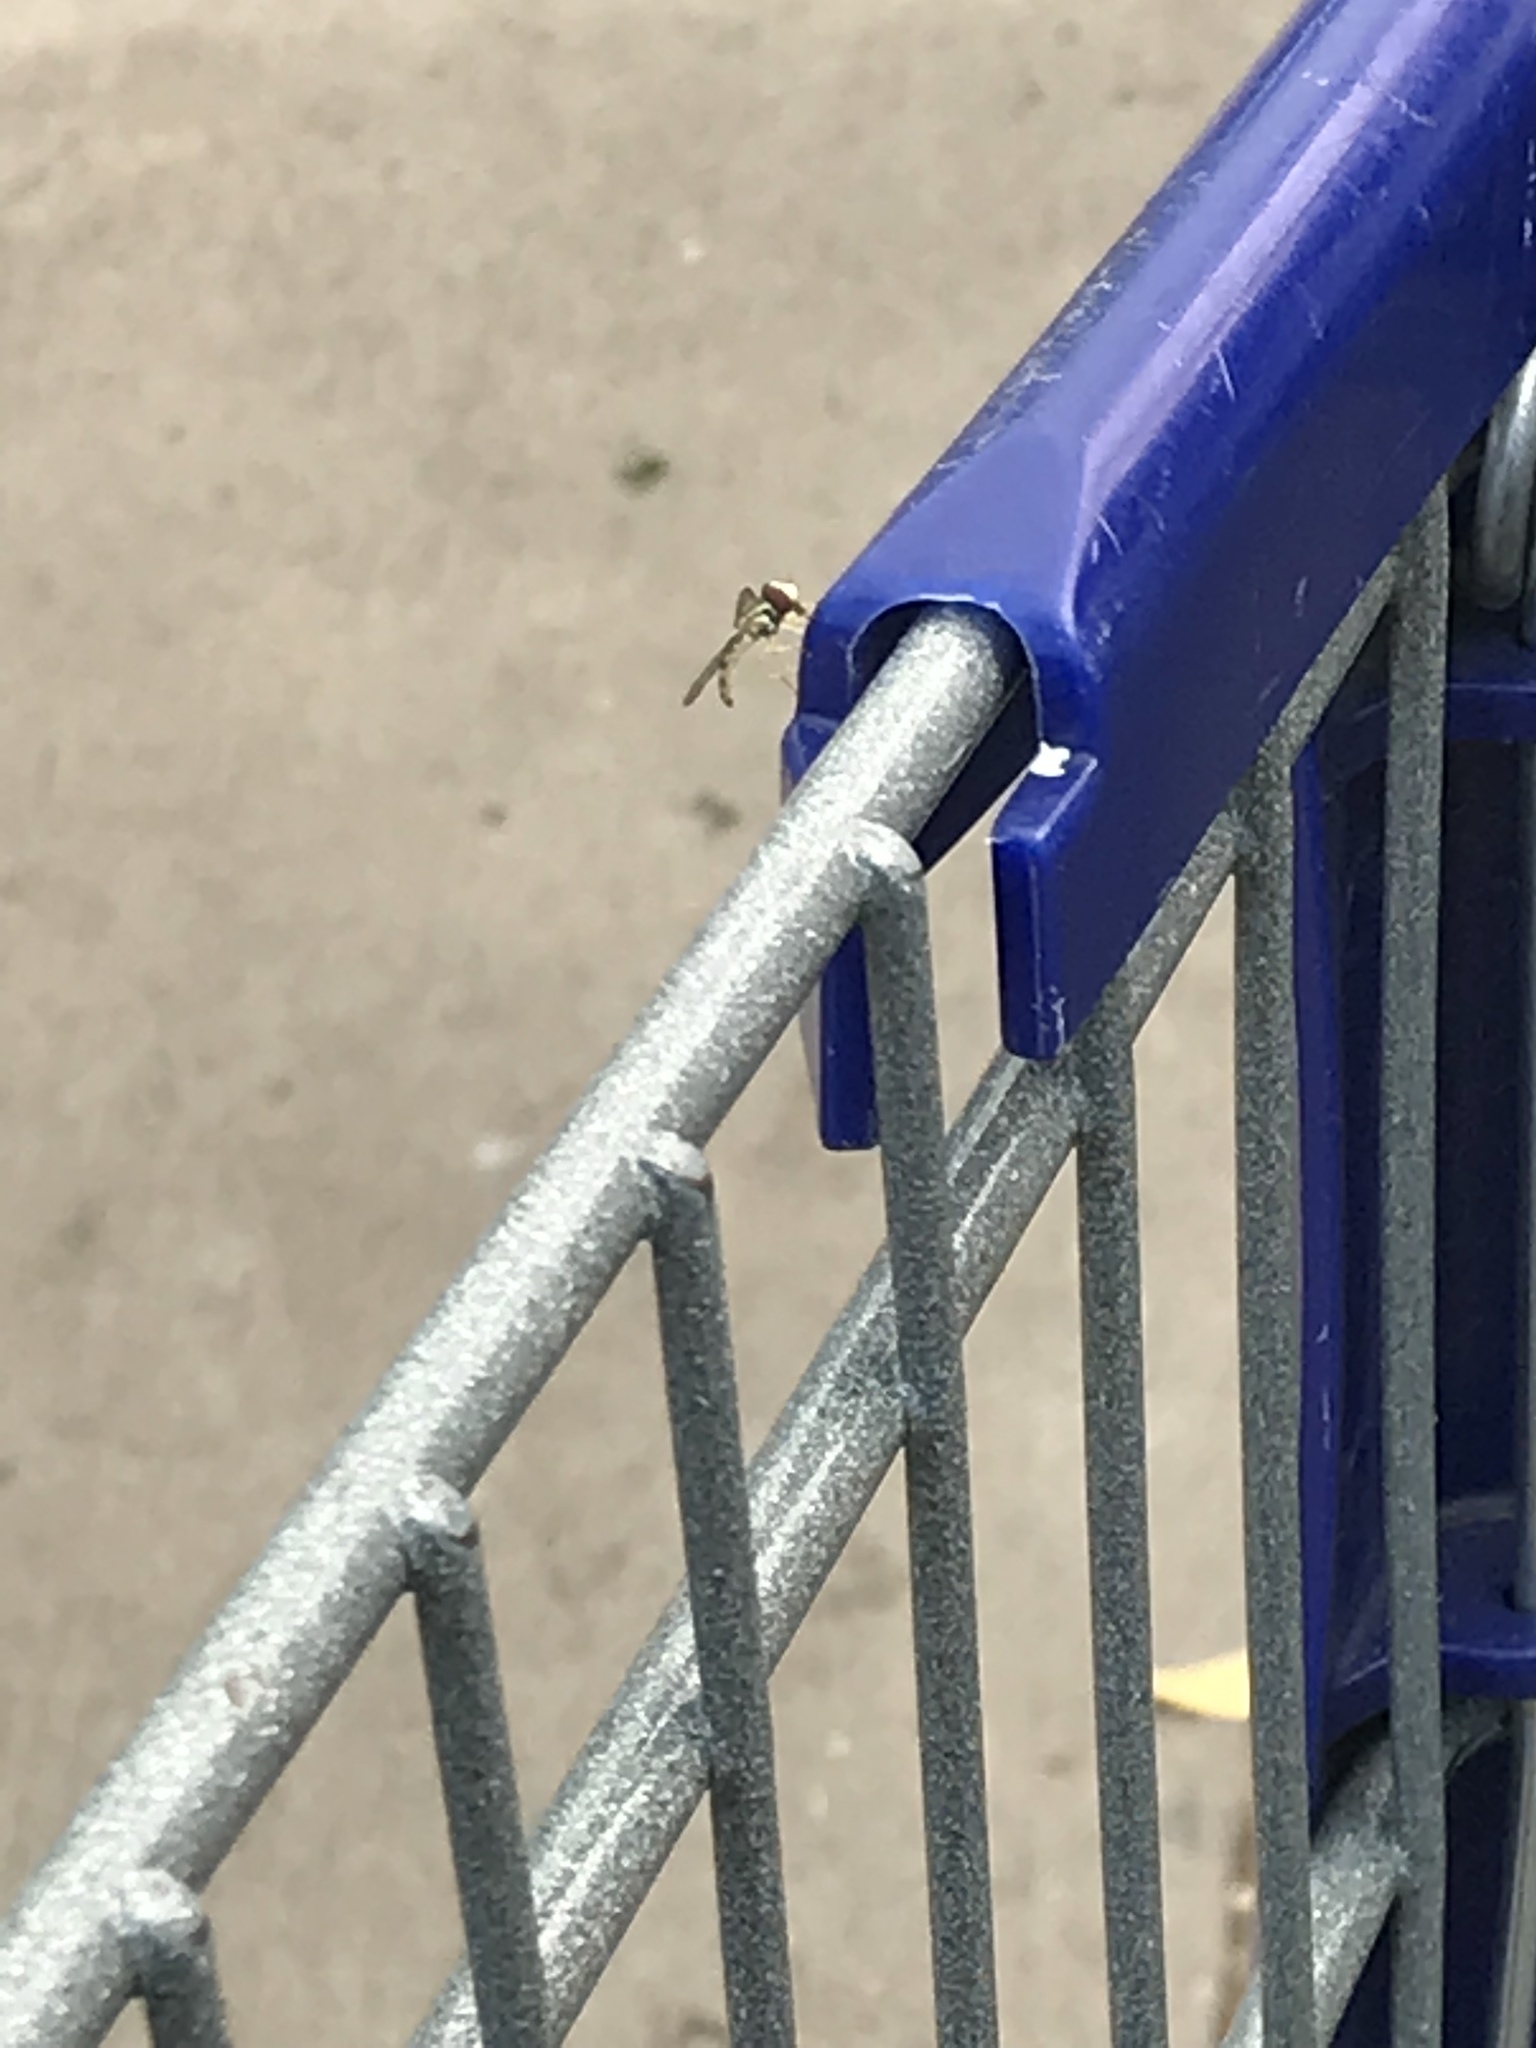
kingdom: Animalia
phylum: Arthropoda
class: Insecta
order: Diptera
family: Syrphidae
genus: Toxomerus
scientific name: Toxomerus
